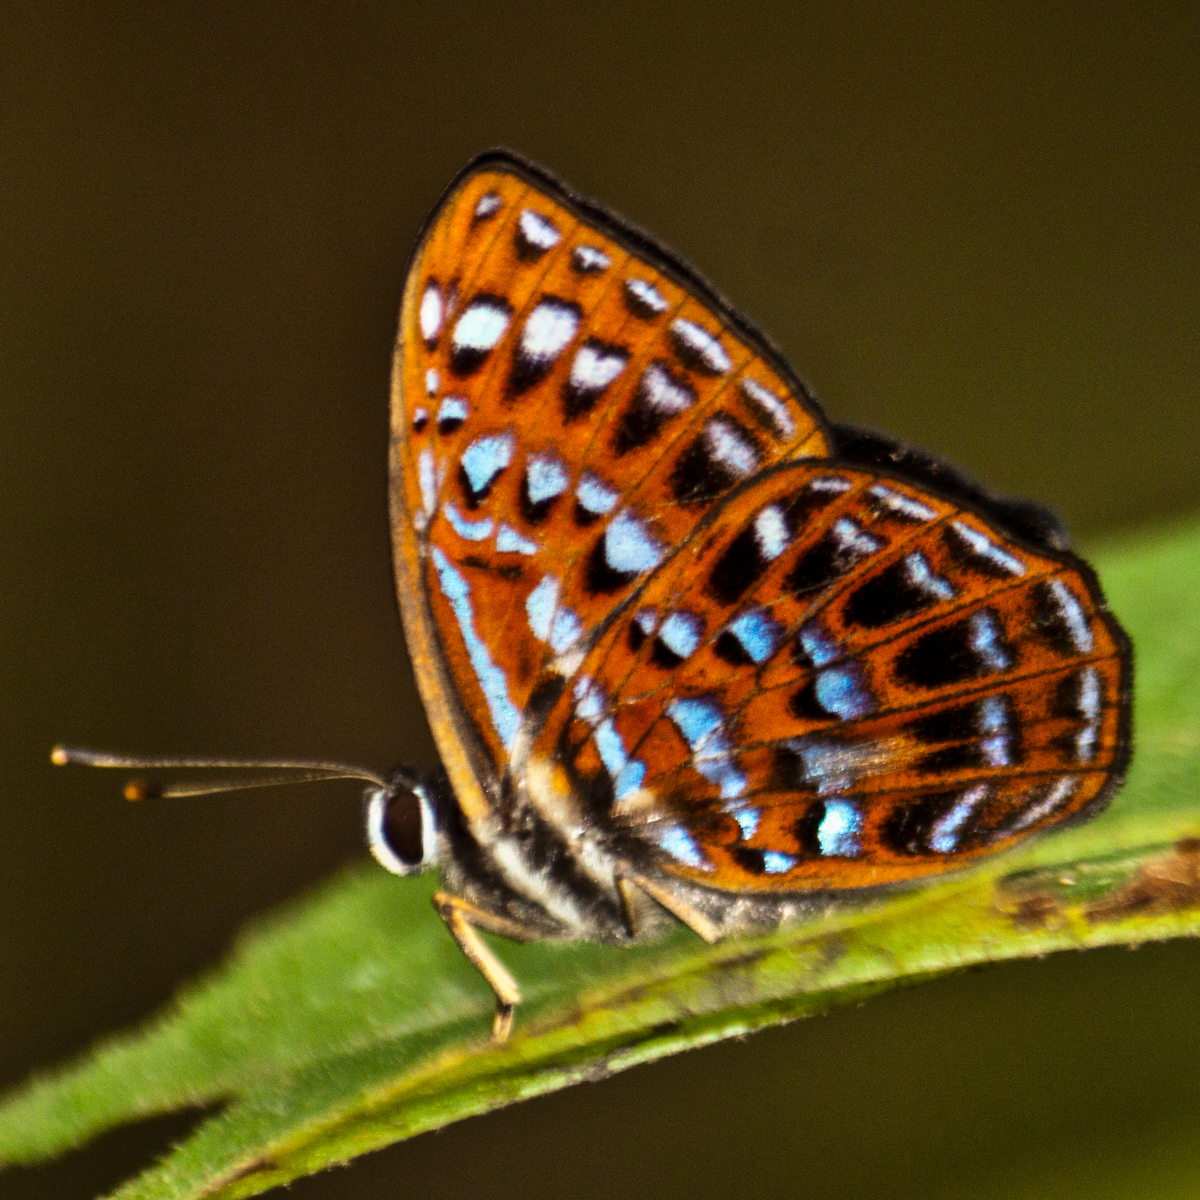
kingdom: Animalia
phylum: Arthropoda
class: Insecta
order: Lepidoptera
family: Riodinidae
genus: Laxita
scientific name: Laxita thuisto
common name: Lesser harlequin
